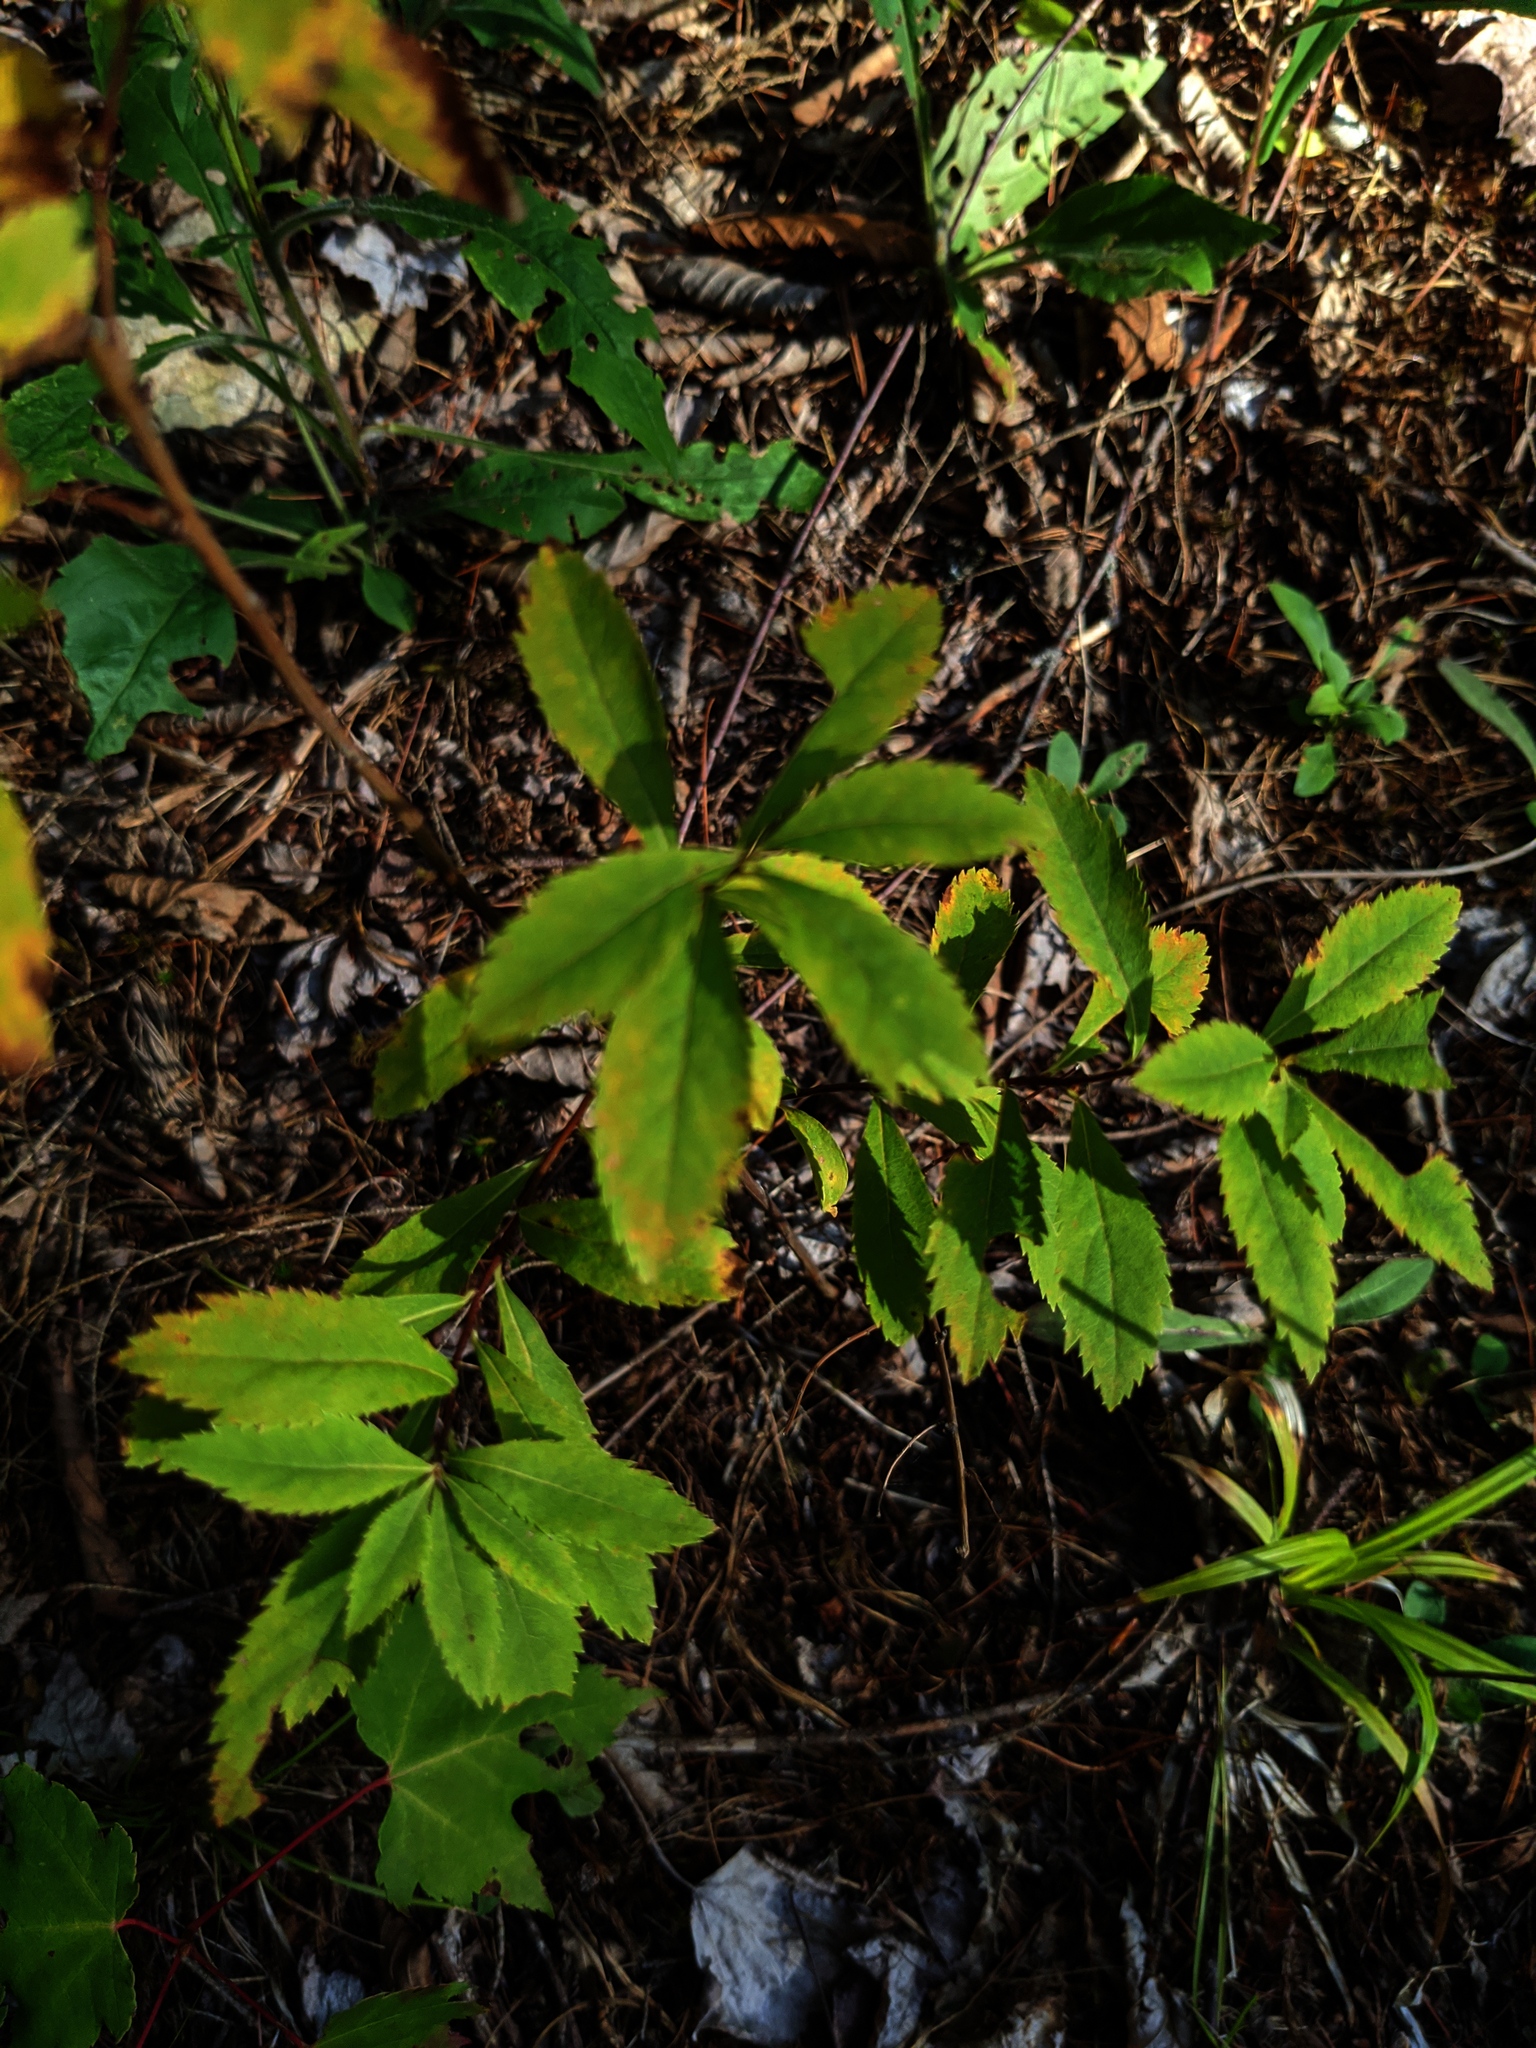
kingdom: Plantae
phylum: Tracheophyta
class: Magnoliopsida
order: Rosales
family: Rosaceae
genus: Spiraea
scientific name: Spiraea alba
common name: Pale bridewort
